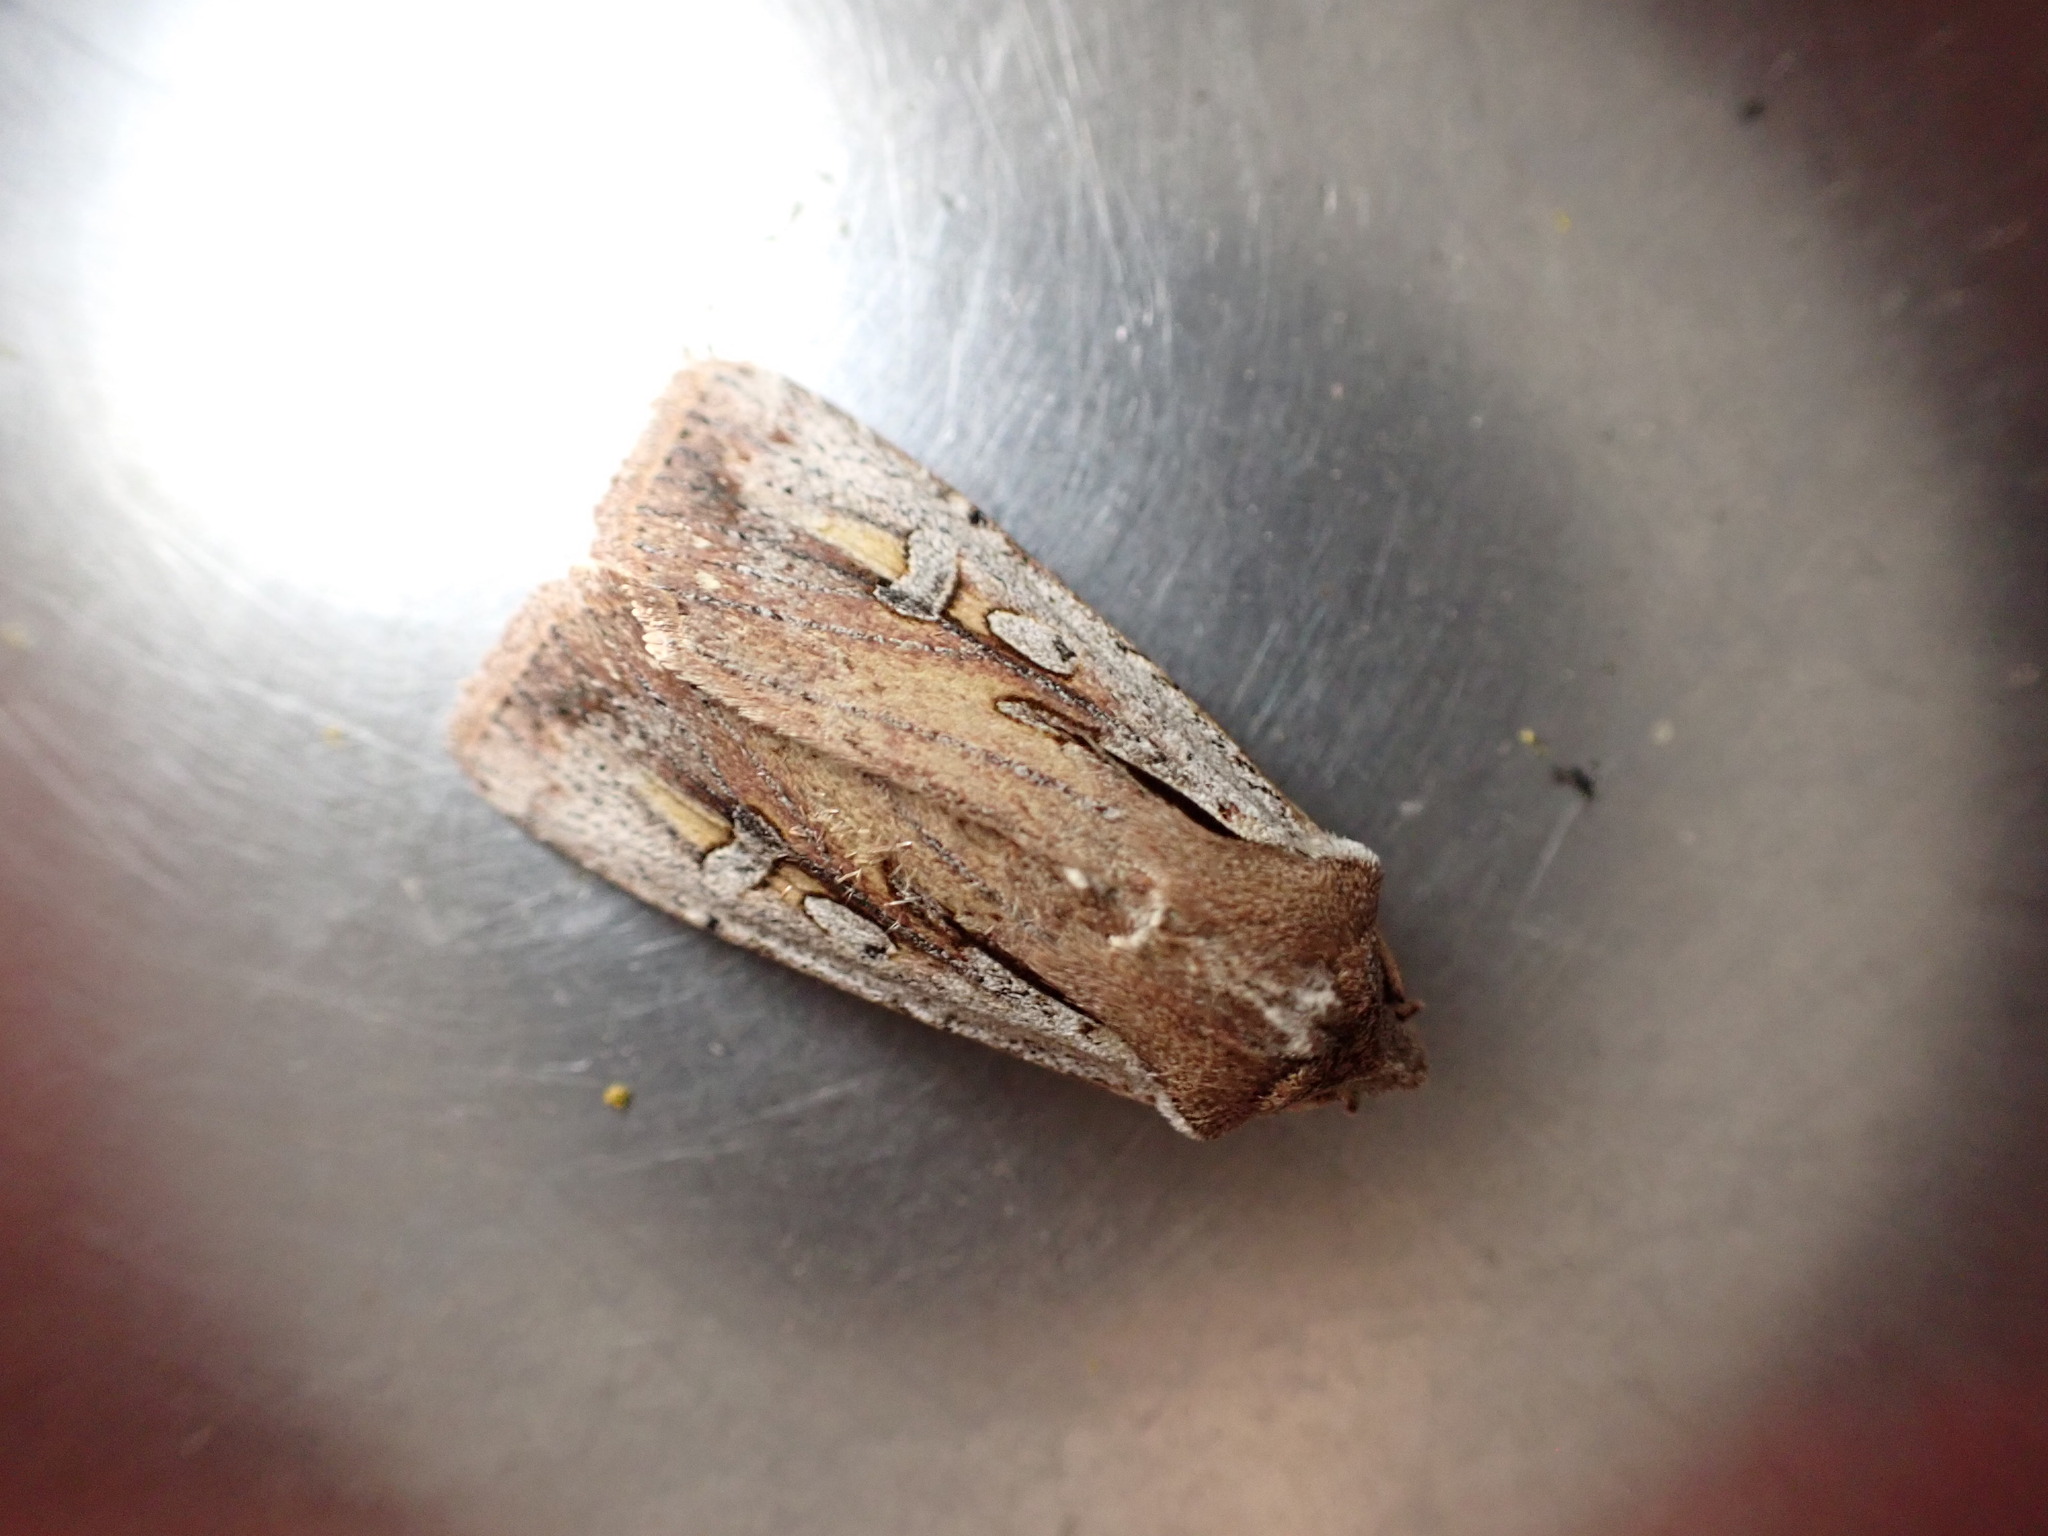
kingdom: Animalia
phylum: Arthropoda
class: Insecta
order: Lepidoptera
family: Noctuidae
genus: Ichneutica
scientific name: Ichneutica atristriga
